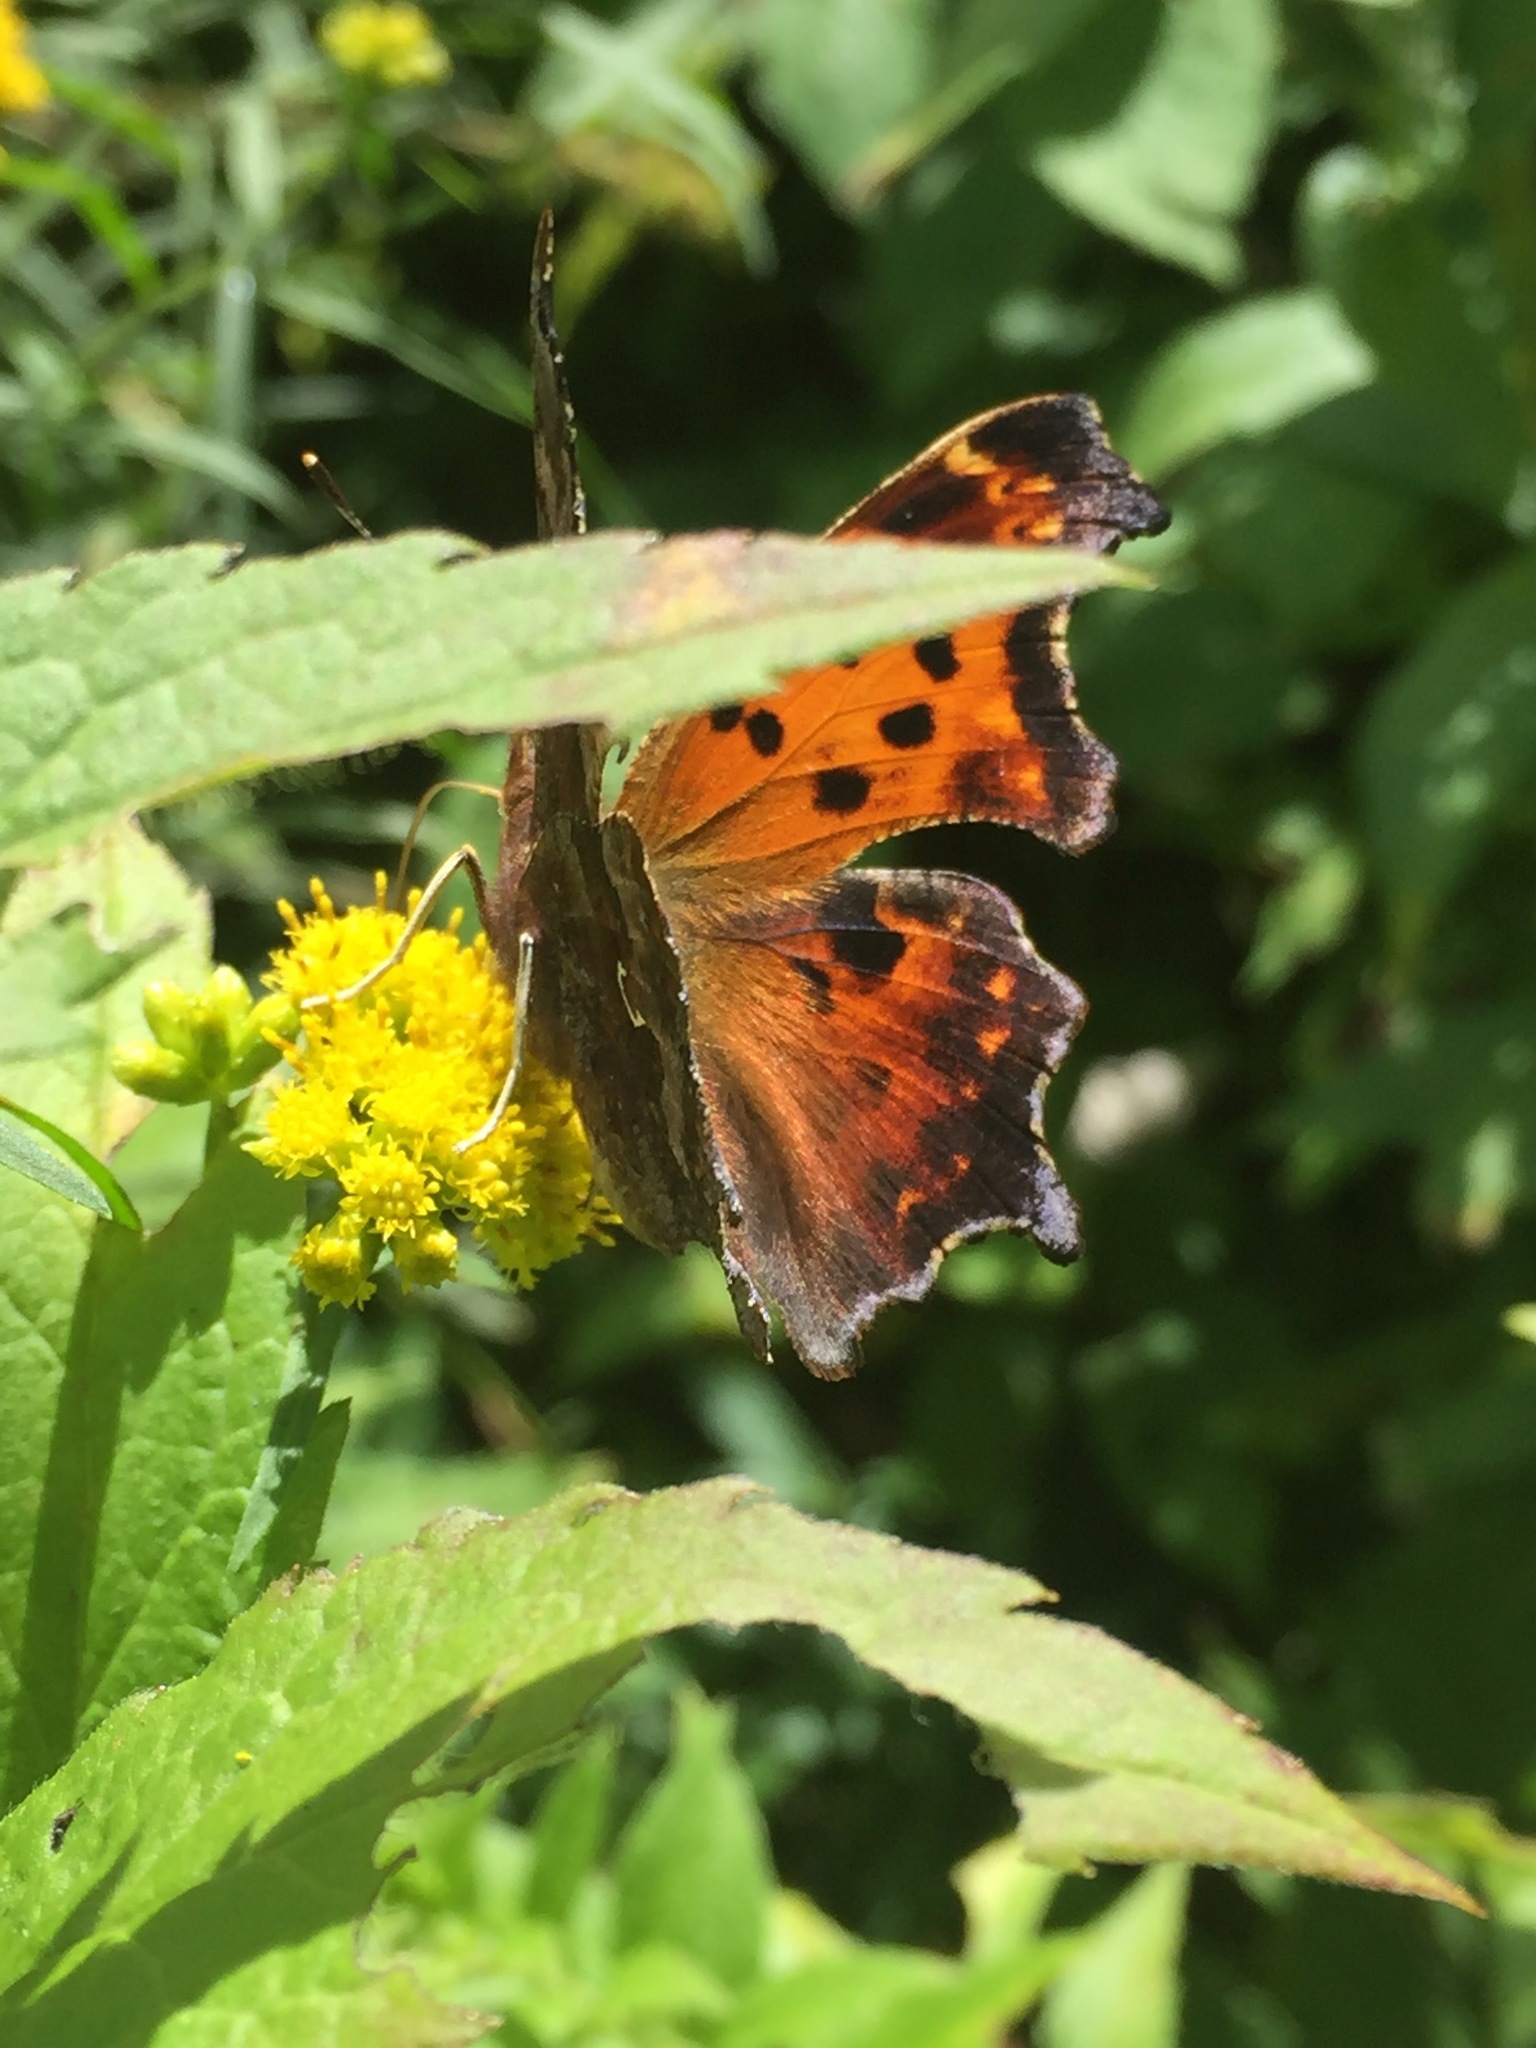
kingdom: Animalia
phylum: Arthropoda
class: Insecta
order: Lepidoptera
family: Nymphalidae
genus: Polygonia
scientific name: Polygonia comma
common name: Eastern comma
